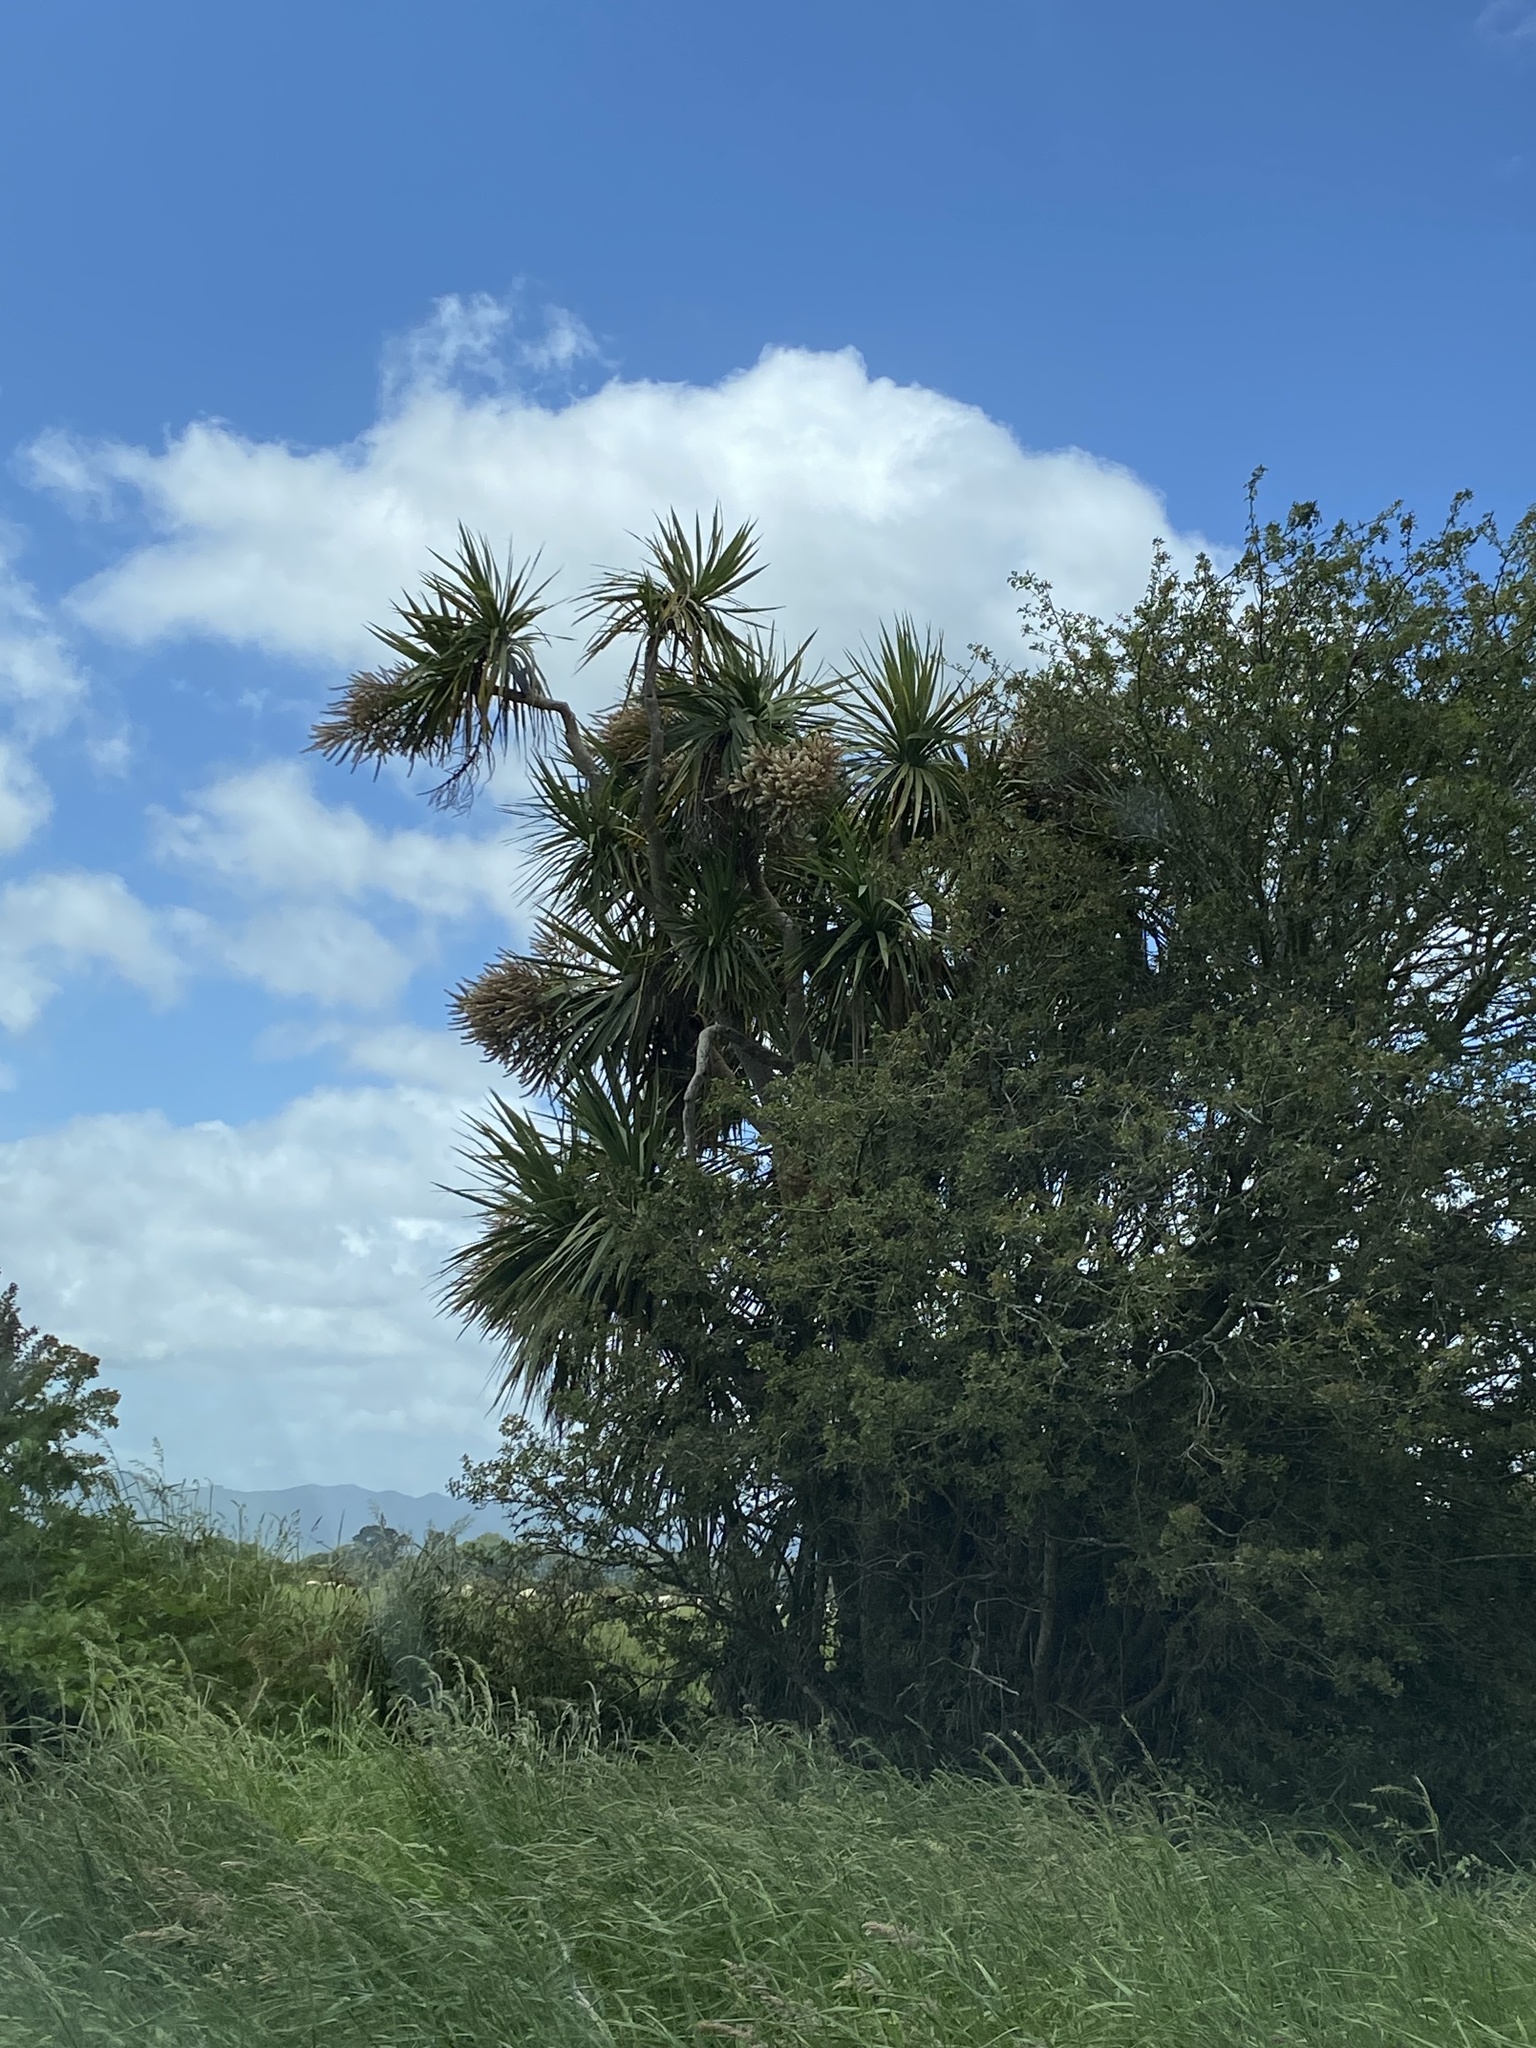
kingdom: Plantae
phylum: Tracheophyta
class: Liliopsida
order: Asparagales
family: Asparagaceae
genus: Cordyline
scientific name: Cordyline australis
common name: Cabbage-palm
